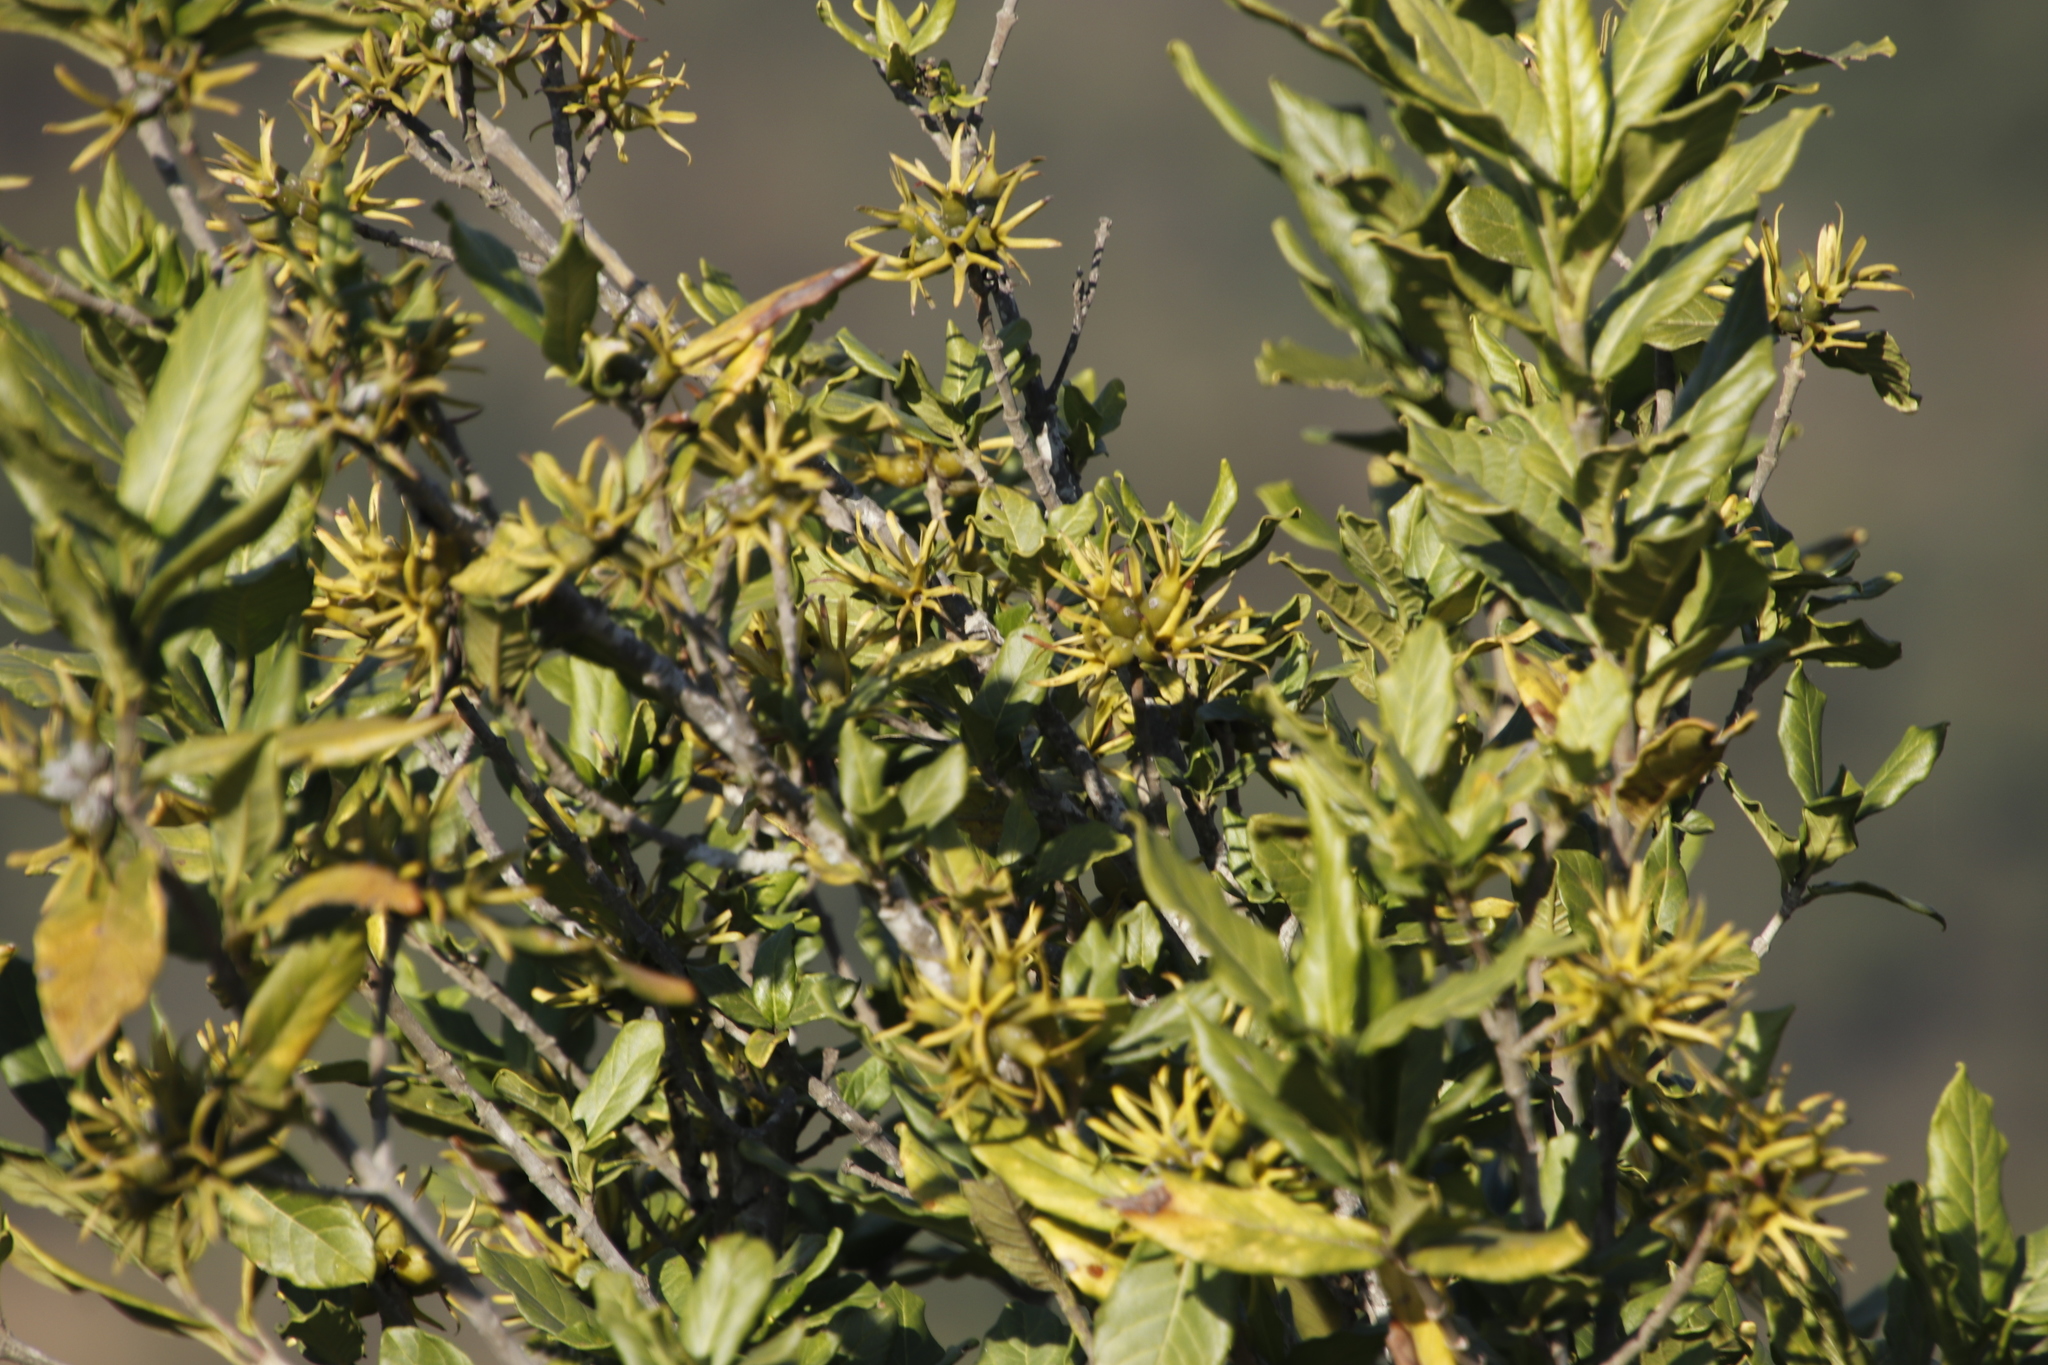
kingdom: Plantae
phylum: Tracheophyta
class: Magnoliopsida
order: Gentianales
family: Rubiaceae
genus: Burchellia
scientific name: Burchellia bubalina
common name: Wild pomegranate
